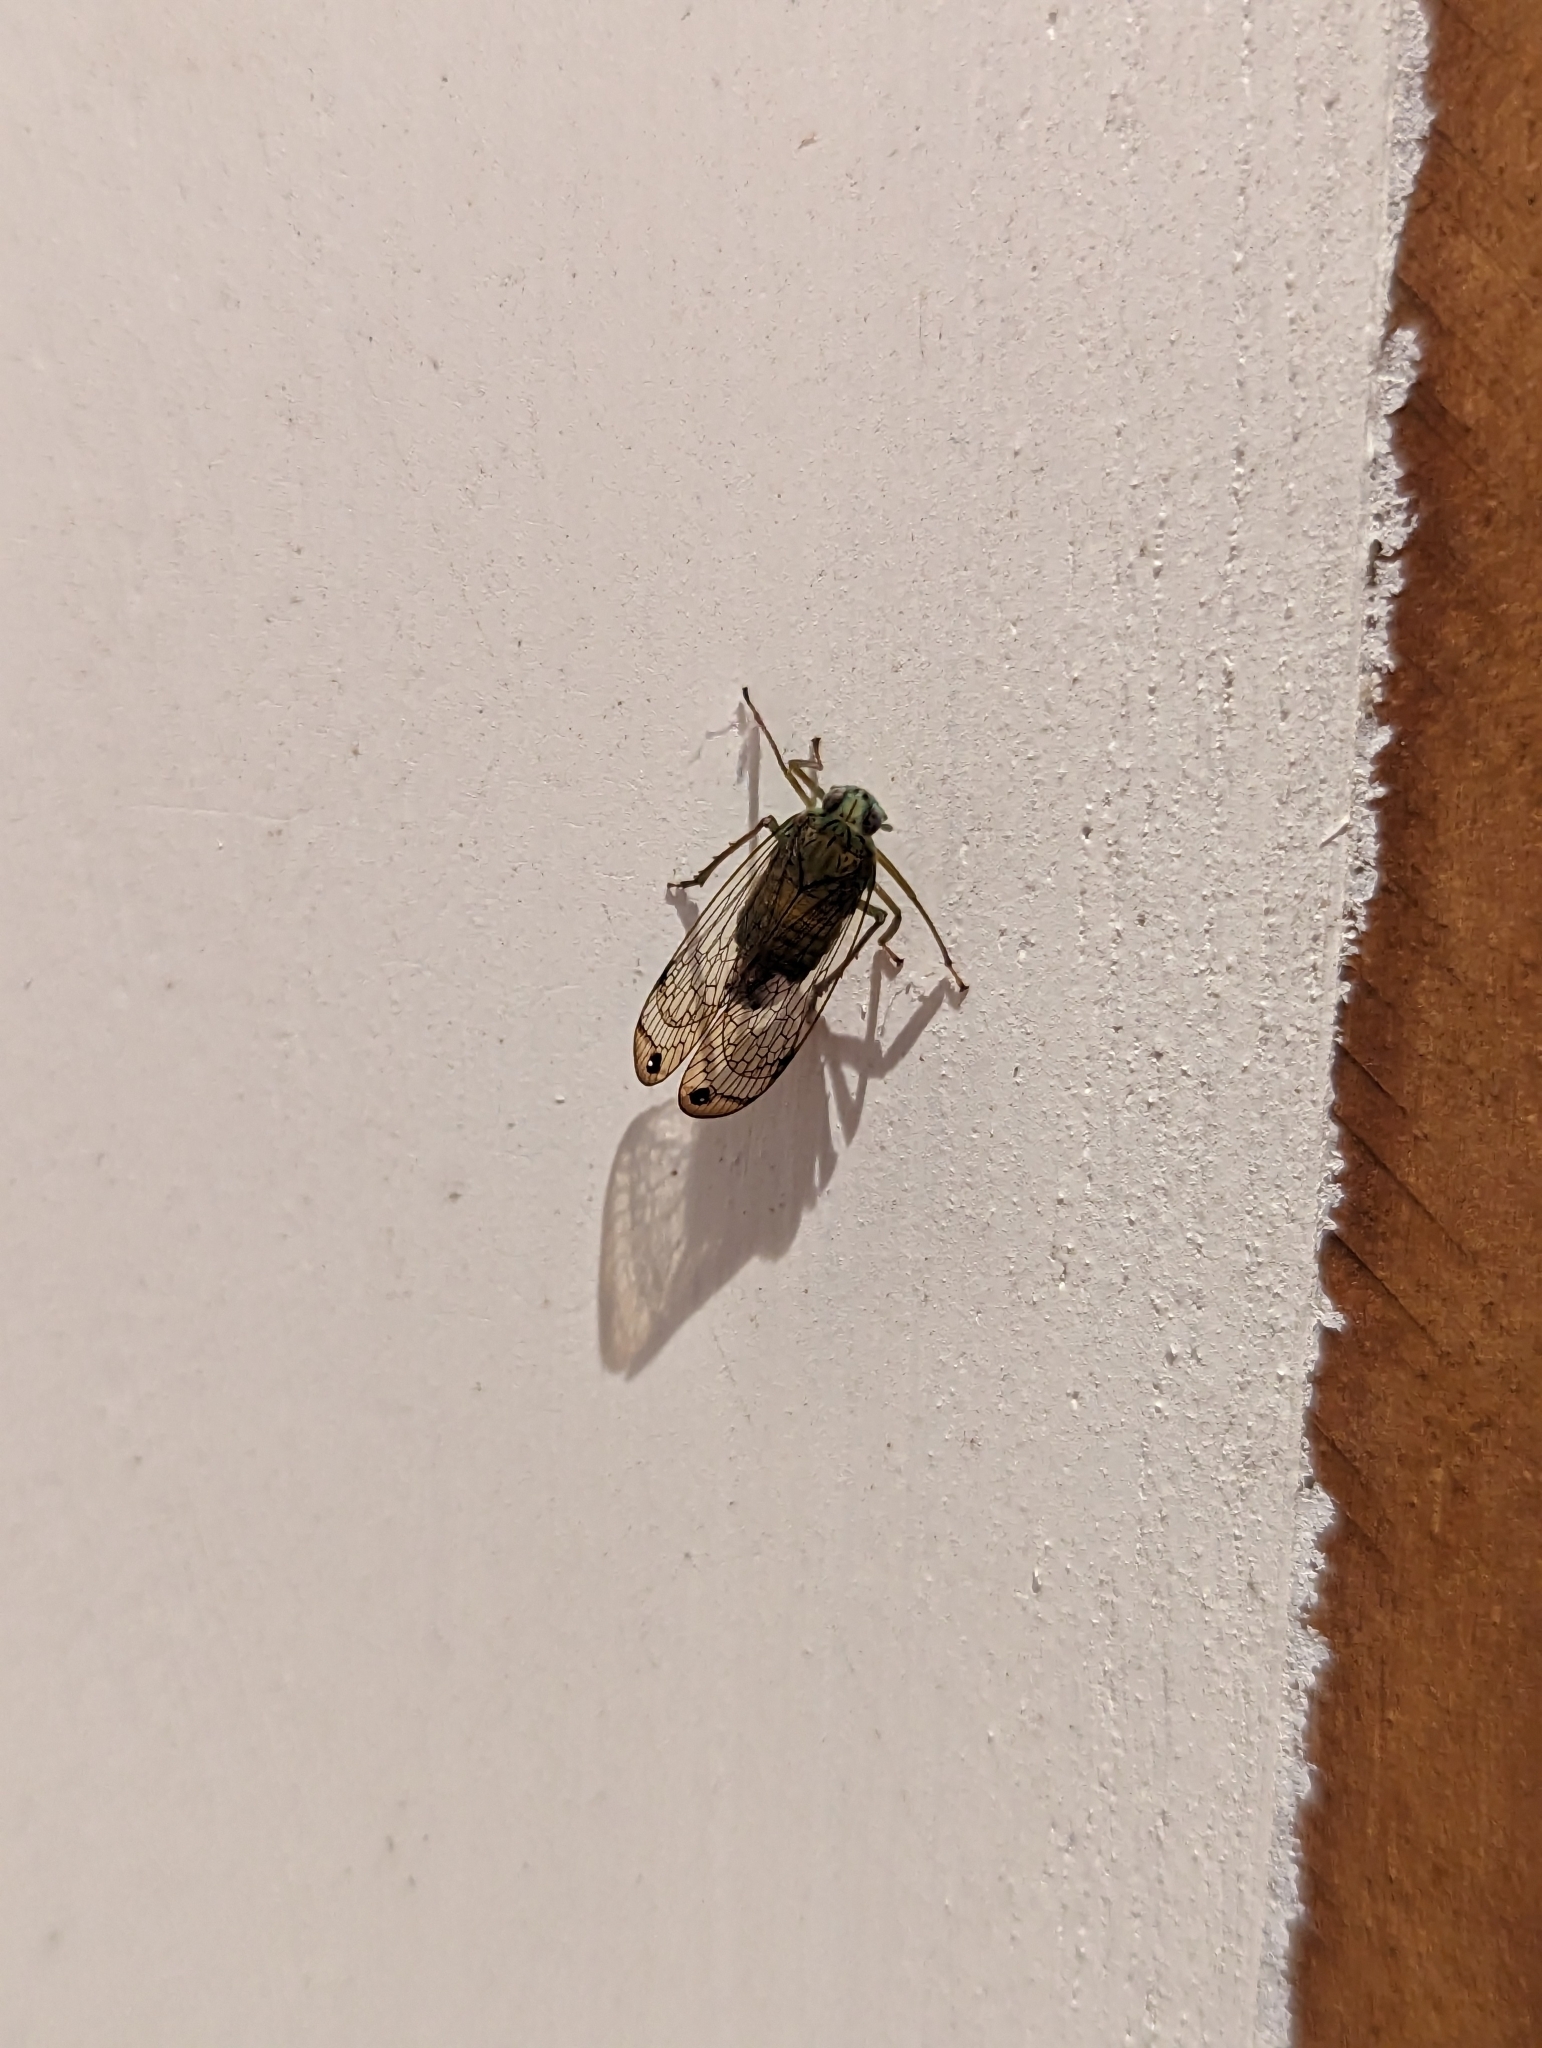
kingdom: Animalia
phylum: Arthropoda
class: Insecta
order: Hemiptera
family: Lophopidae
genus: Magia
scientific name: Magia subocellata
